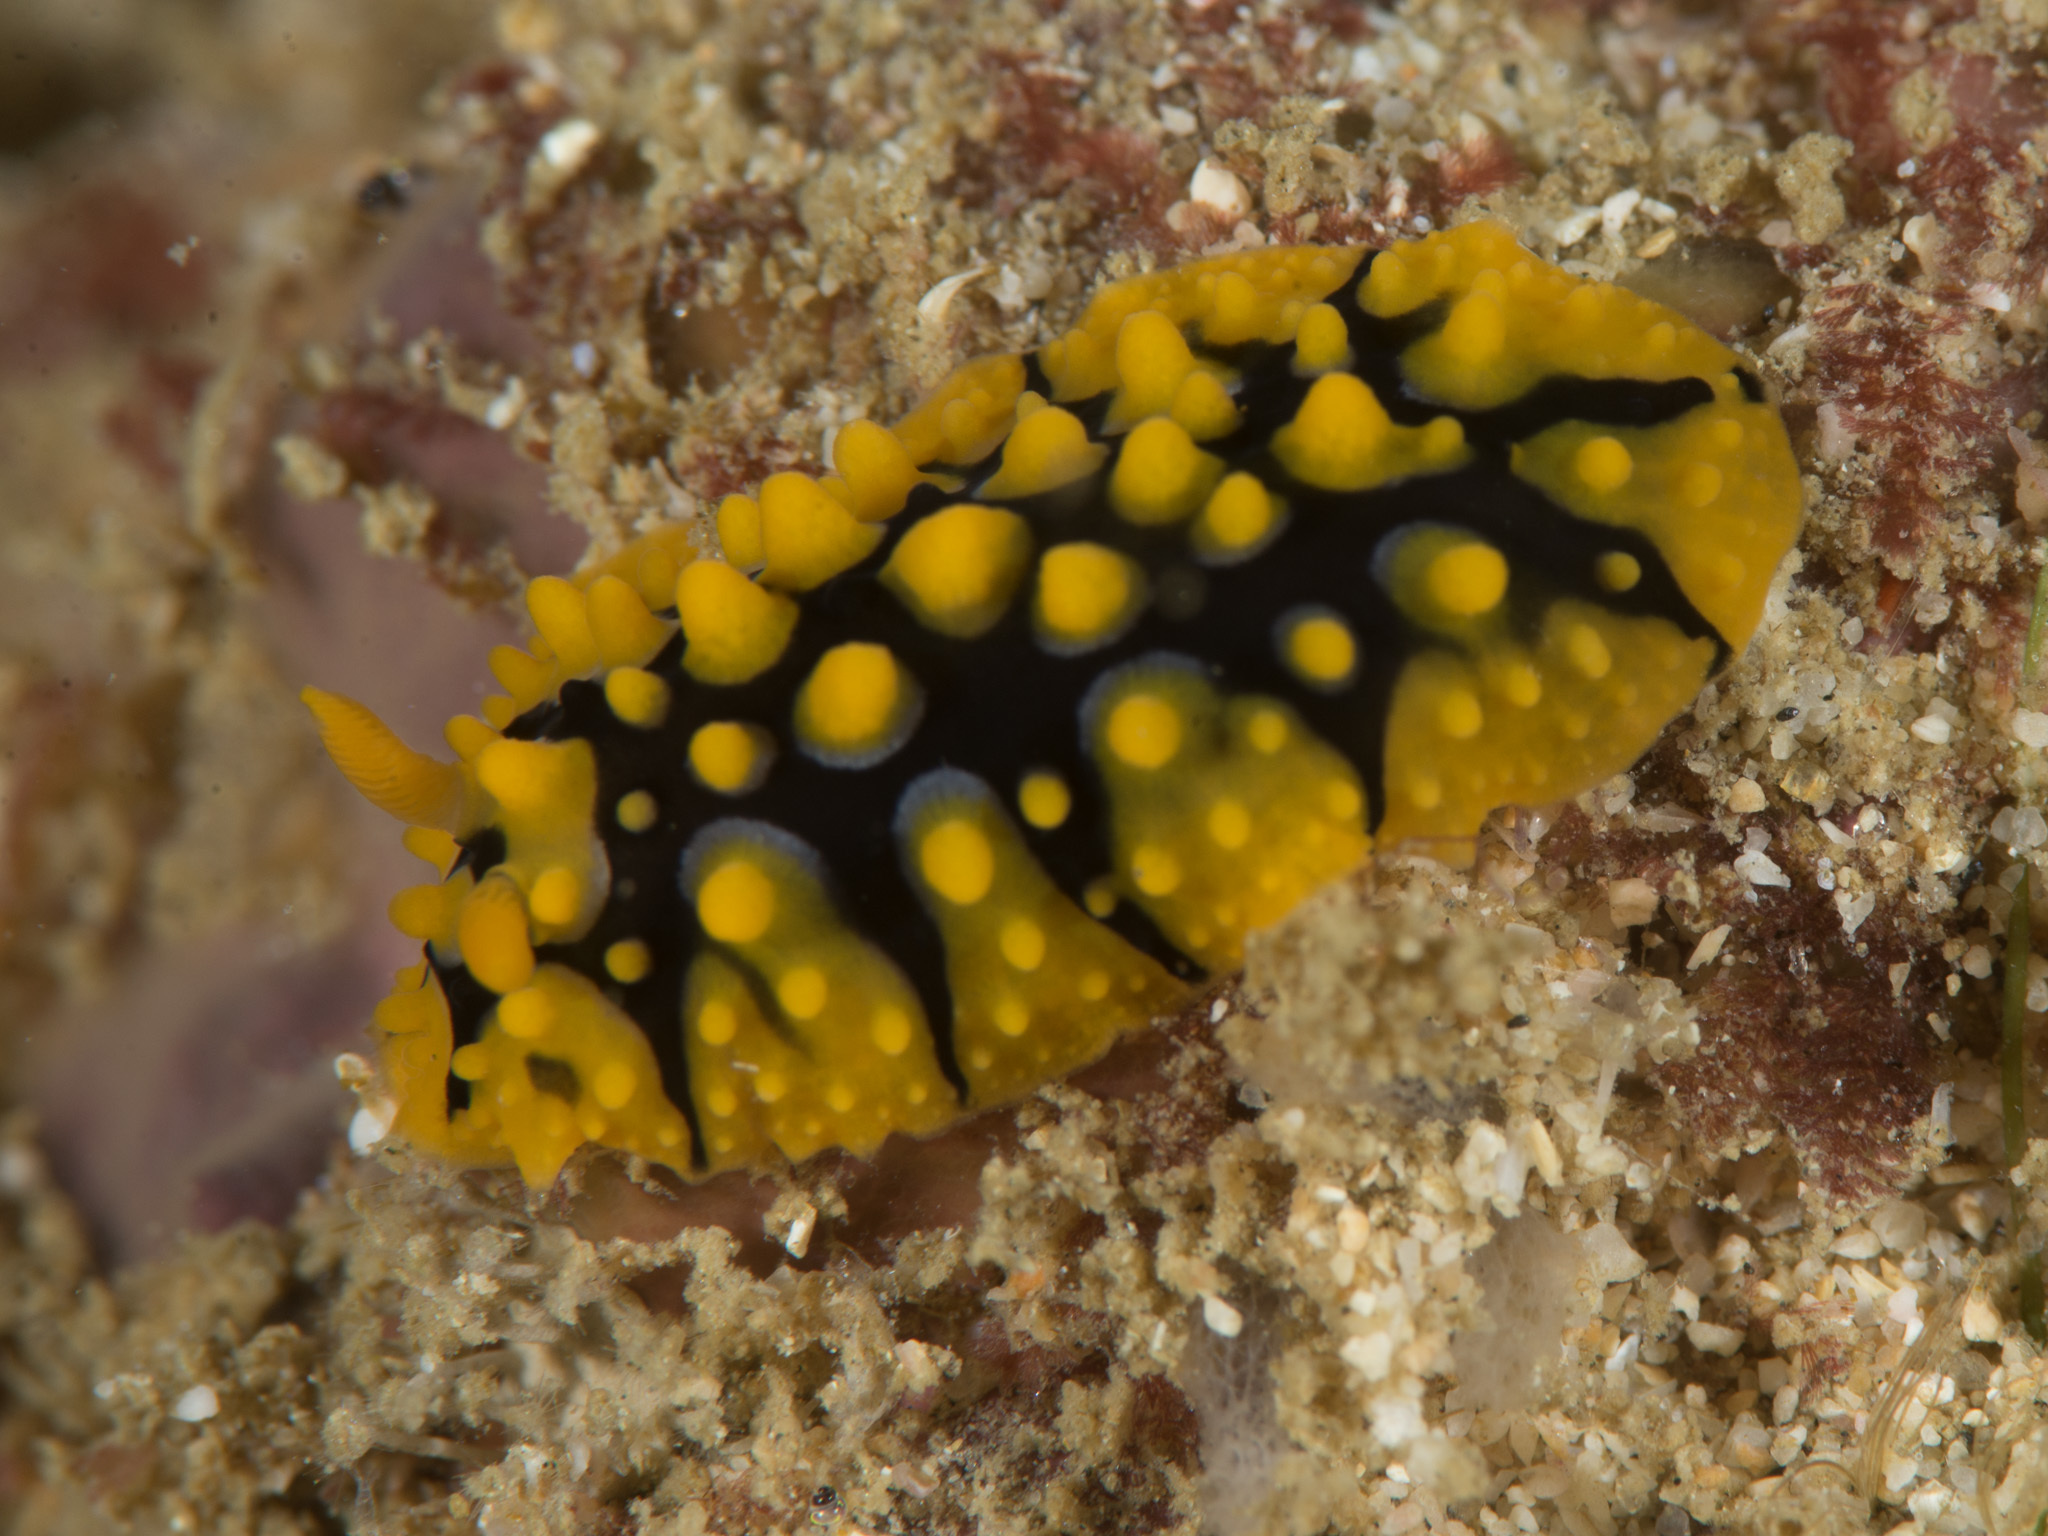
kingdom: Animalia
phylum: Mollusca
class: Gastropoda
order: Nudibranchia
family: Phyllidiidae
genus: Phyllidia
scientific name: Phyllidia multituberculata
